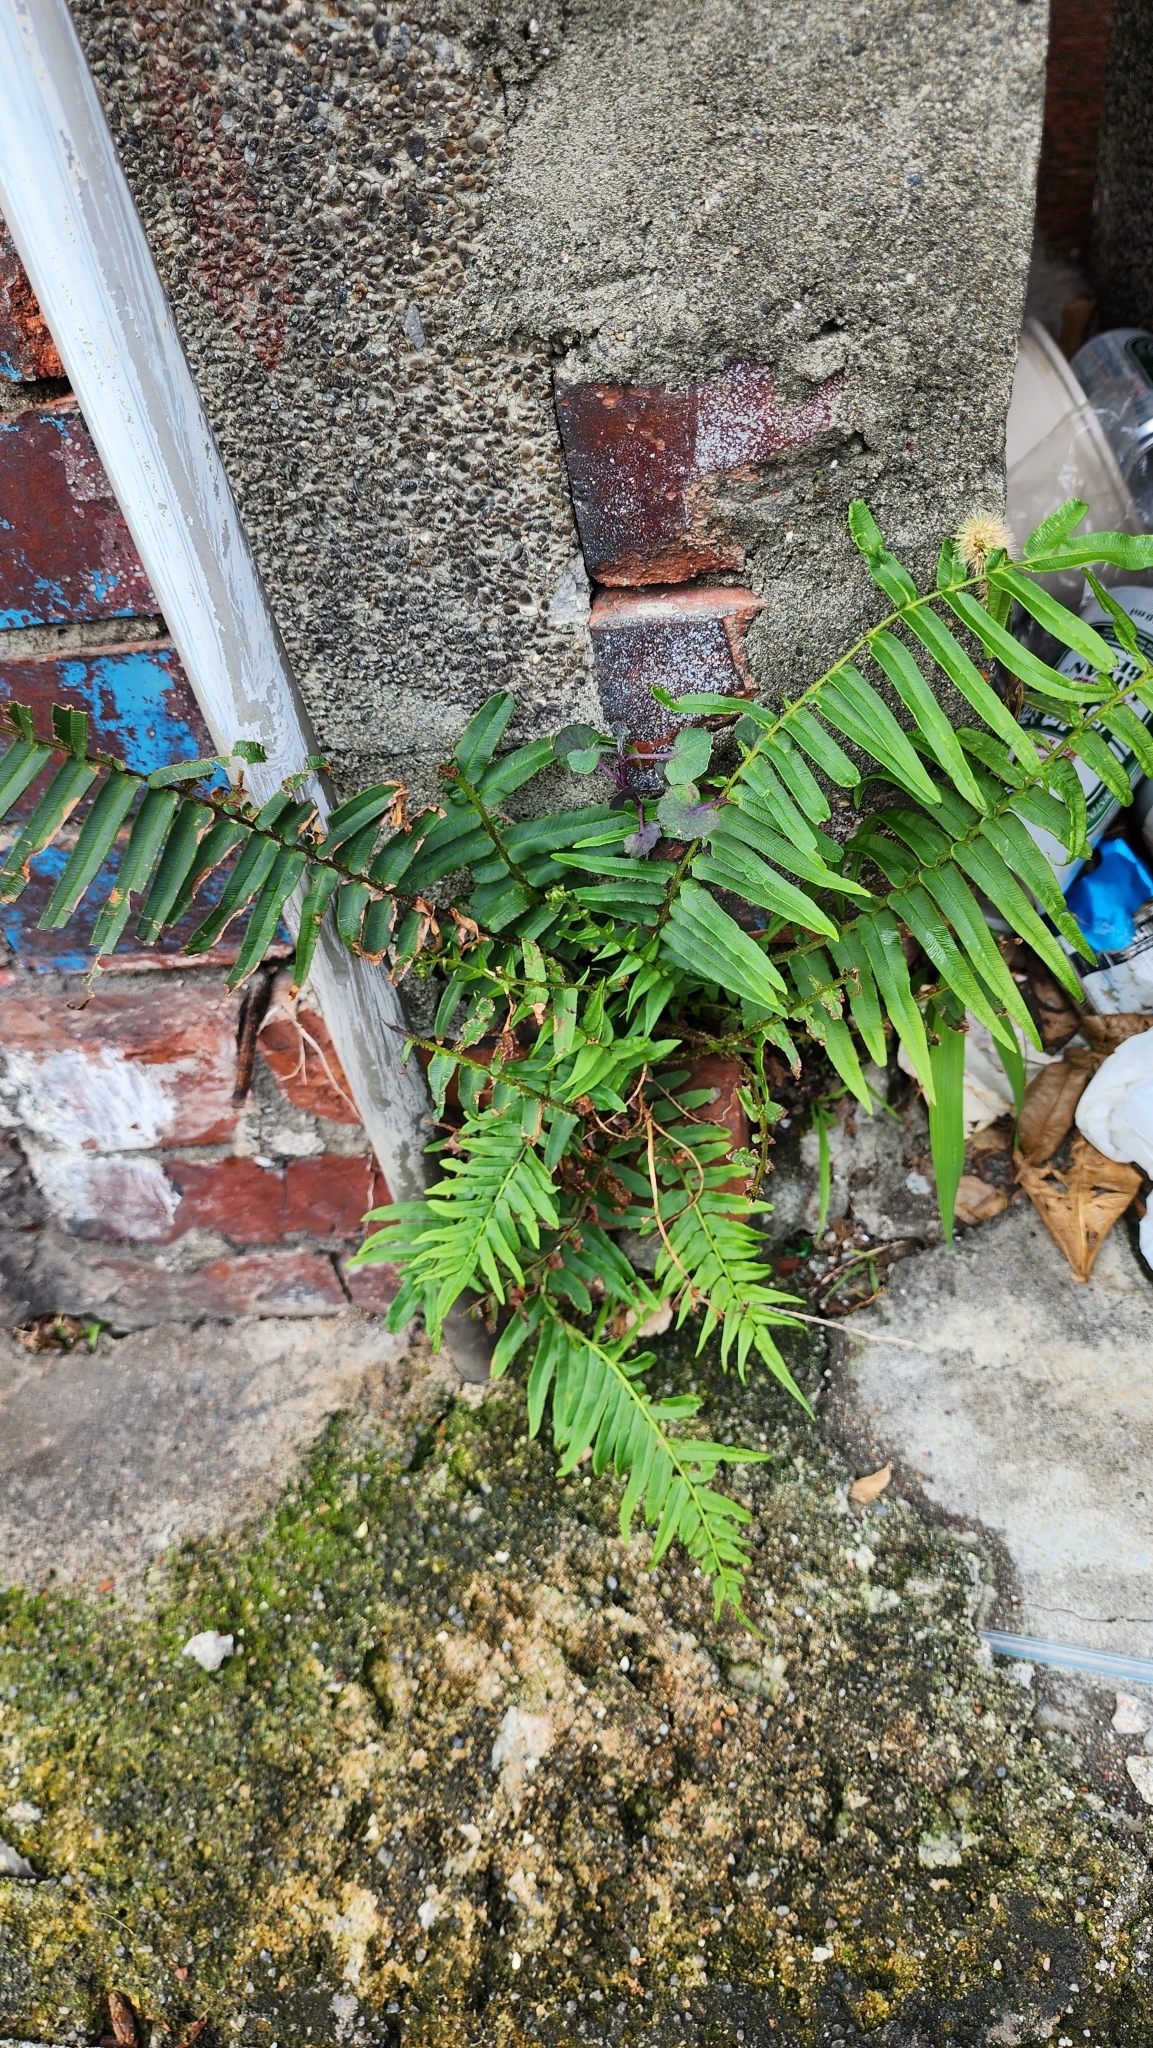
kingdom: Plantae
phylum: Tracheophyta
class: Polypodiopsida
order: Polypodiales
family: Pteridaceae
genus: Pteris
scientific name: Pteris vittata
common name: Ladder brake
